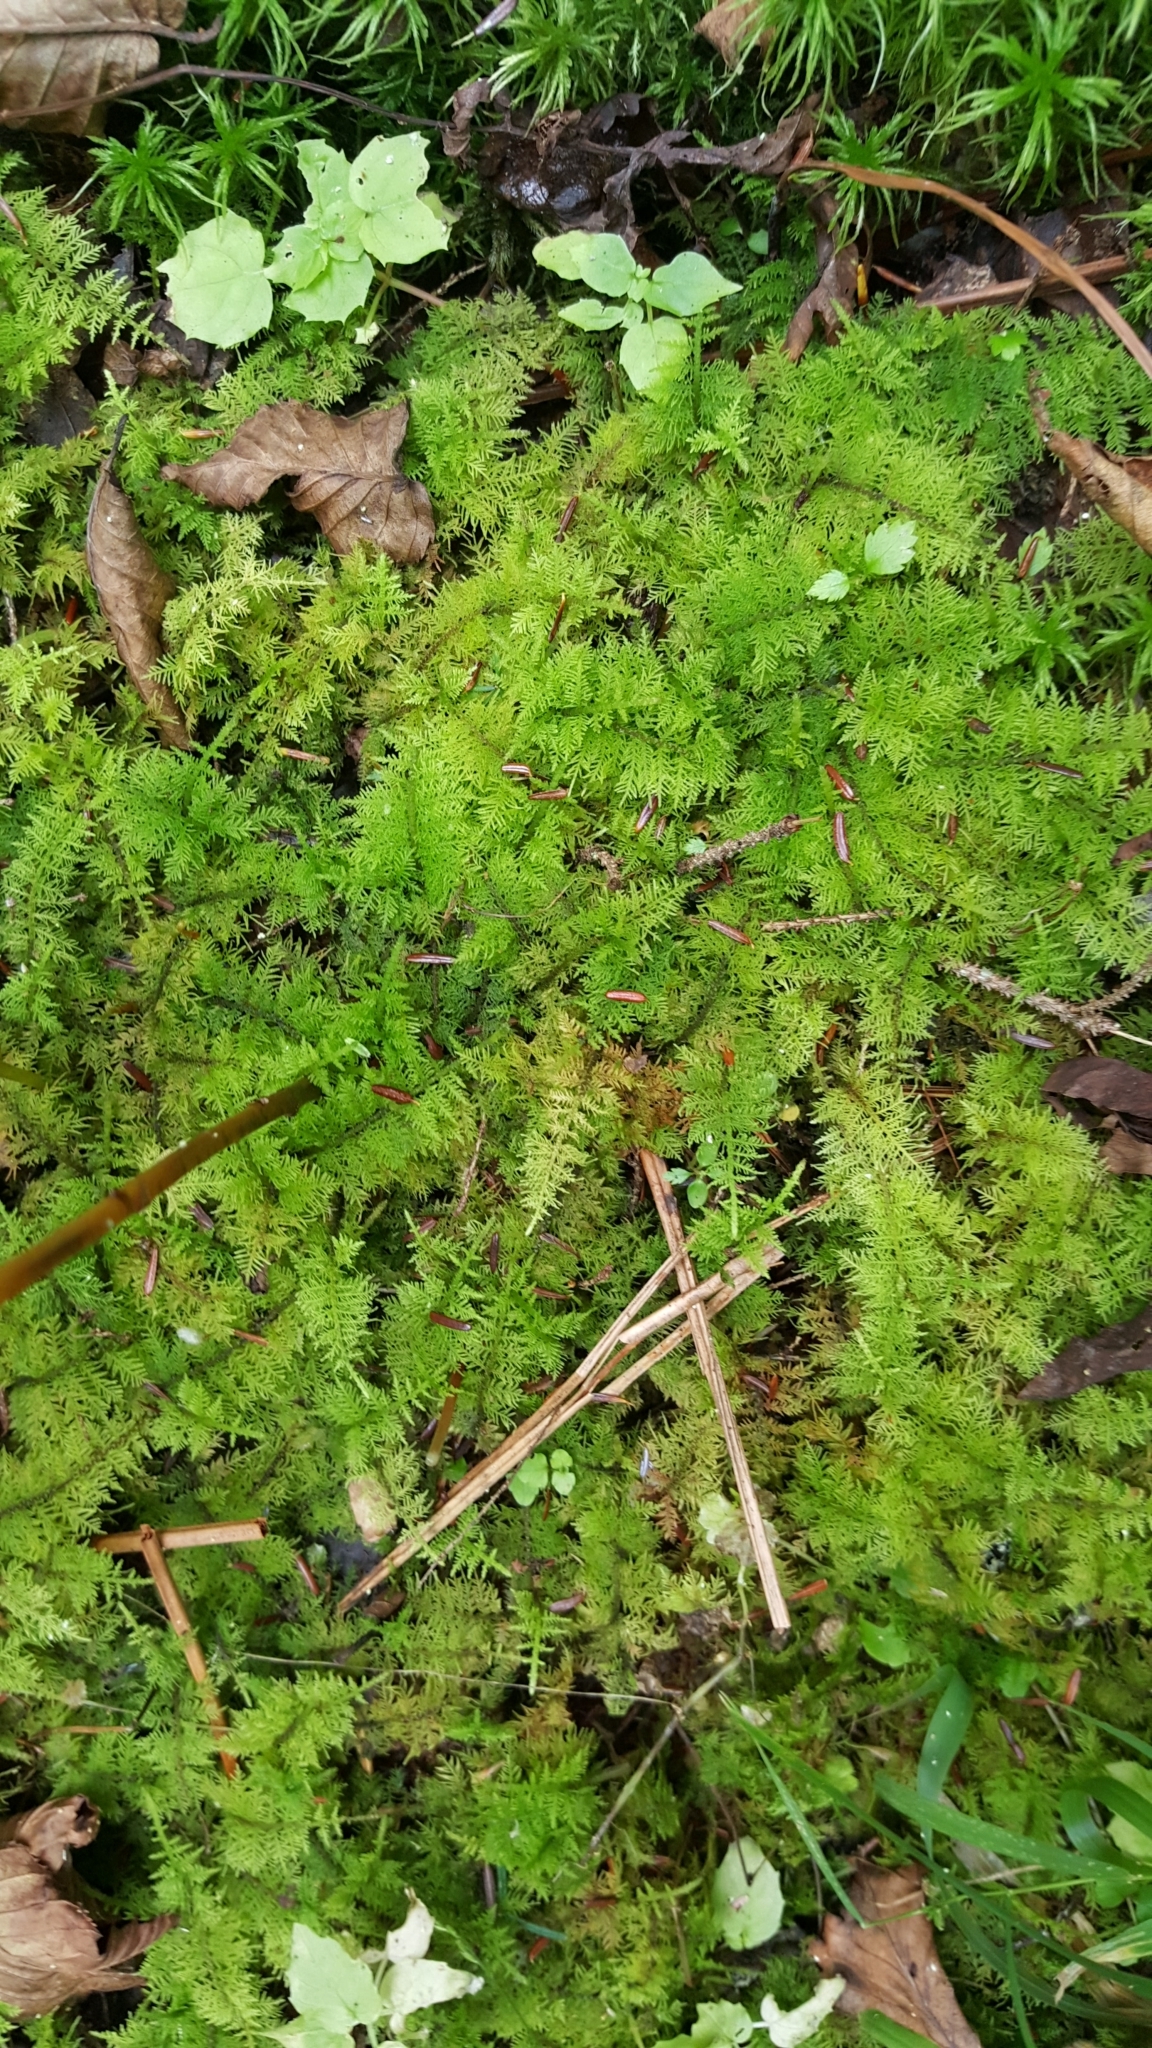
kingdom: Plantae
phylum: Bryophyta
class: Bryopsida
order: Hypnales
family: Thuidiaceae
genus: Thuidium
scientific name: Thuidium delicatulum
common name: Delicate fern moss
